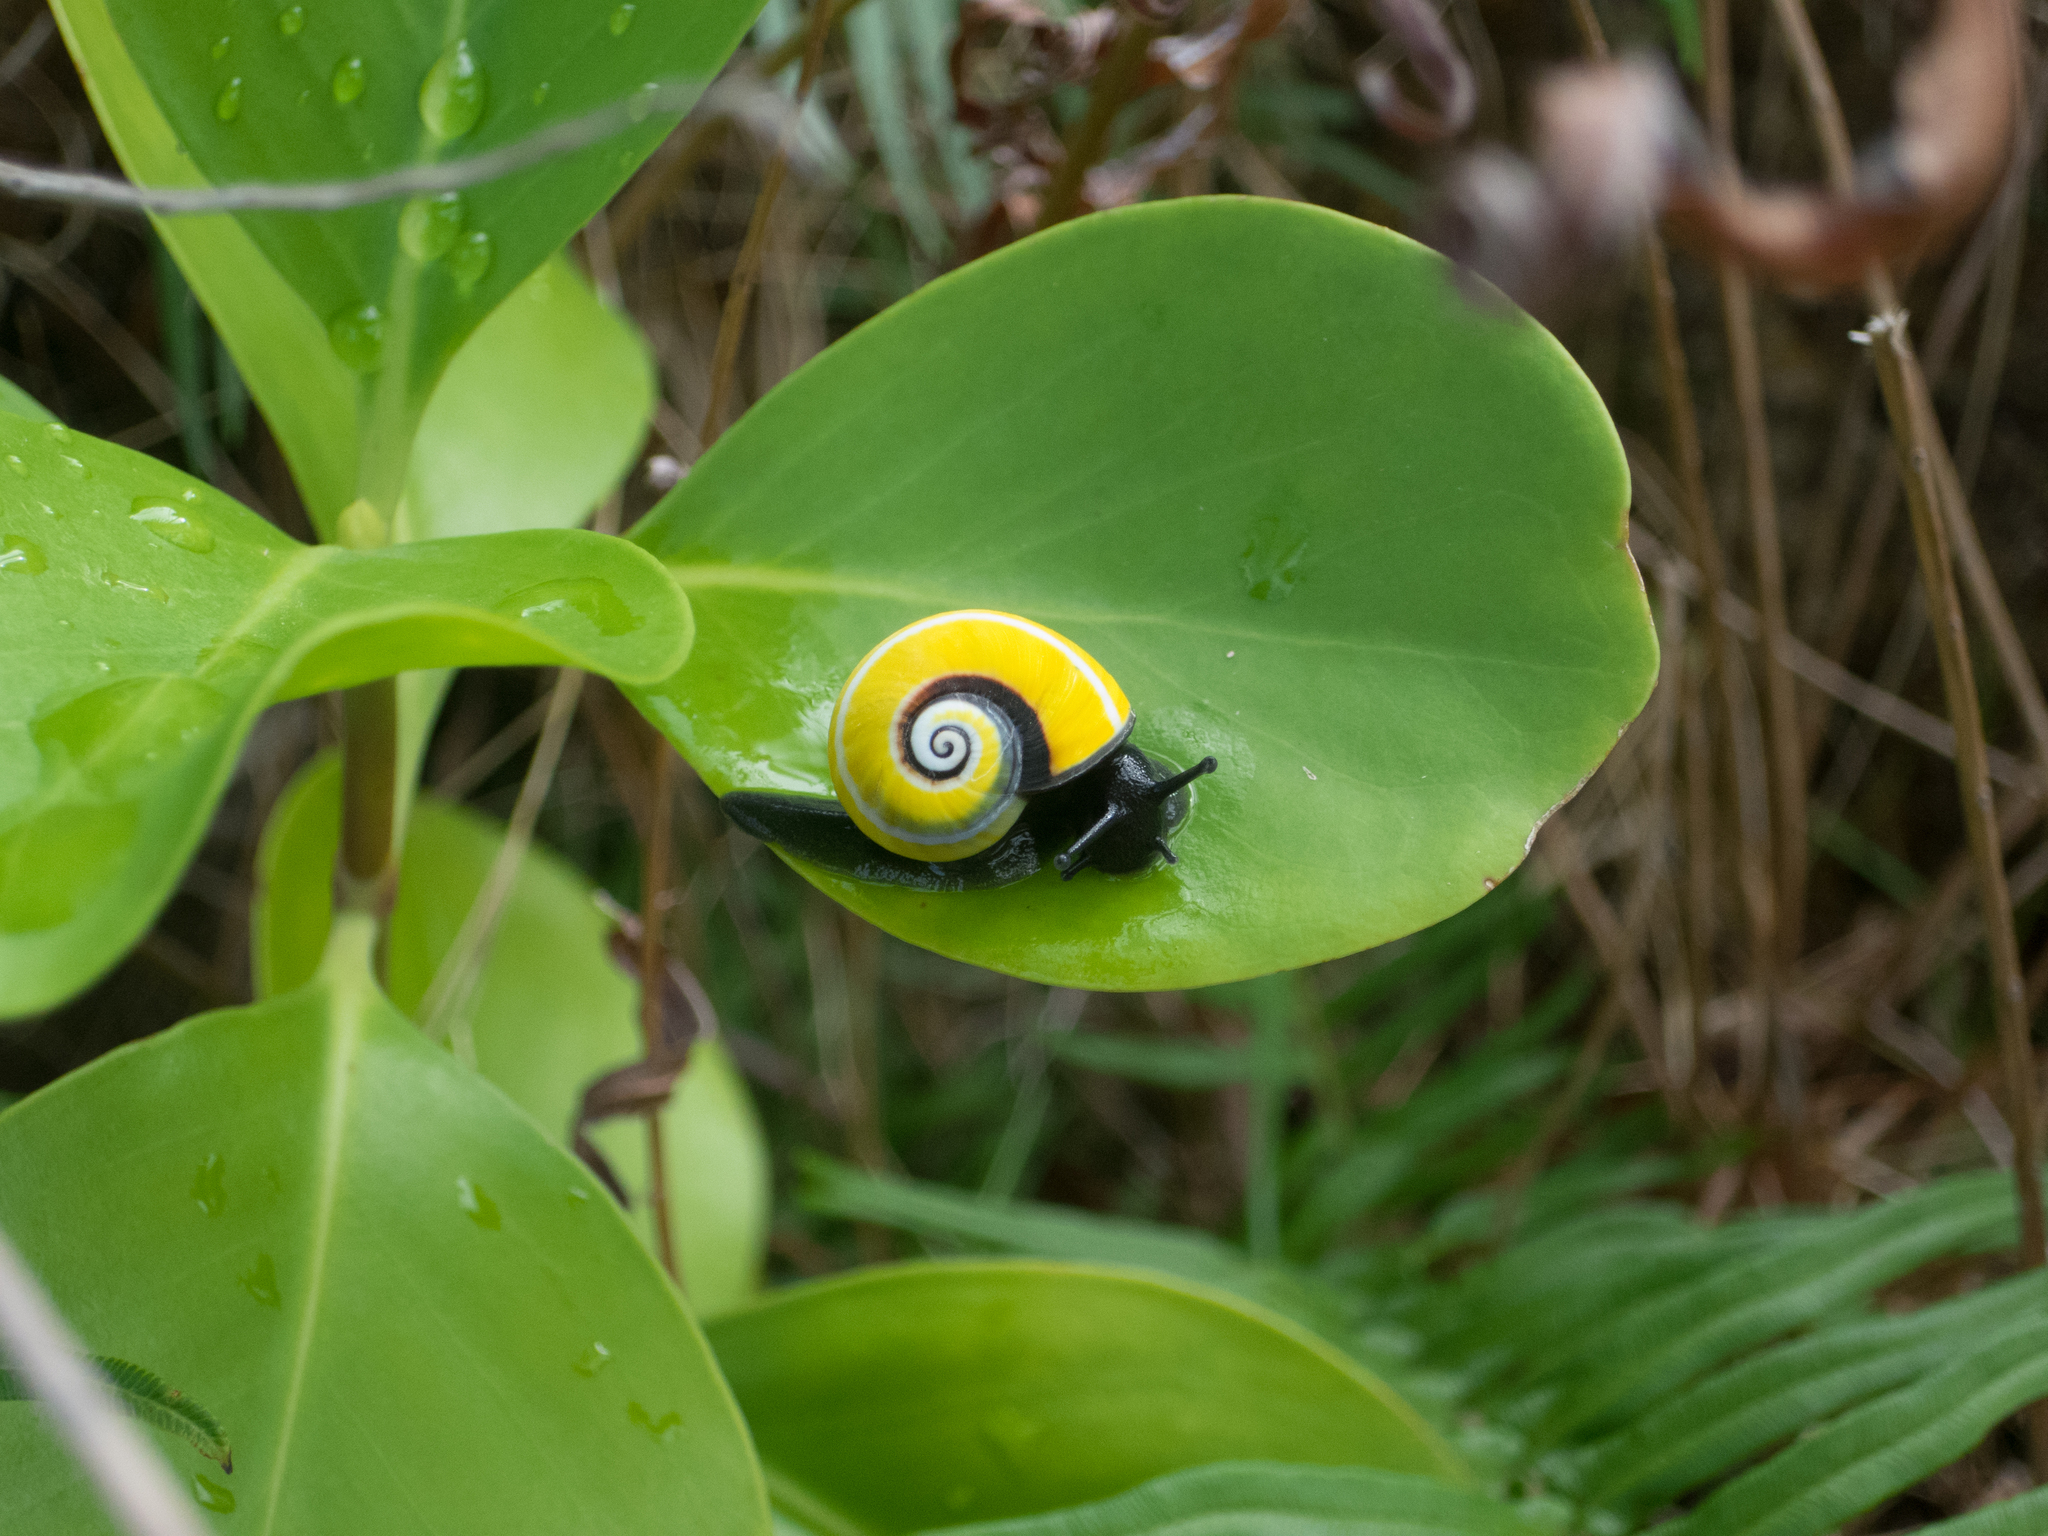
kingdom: Animalia
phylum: Mollusca
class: Gastropoda
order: Stylommatophora
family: Cepolidae
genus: Polymita
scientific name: Polymita picta
